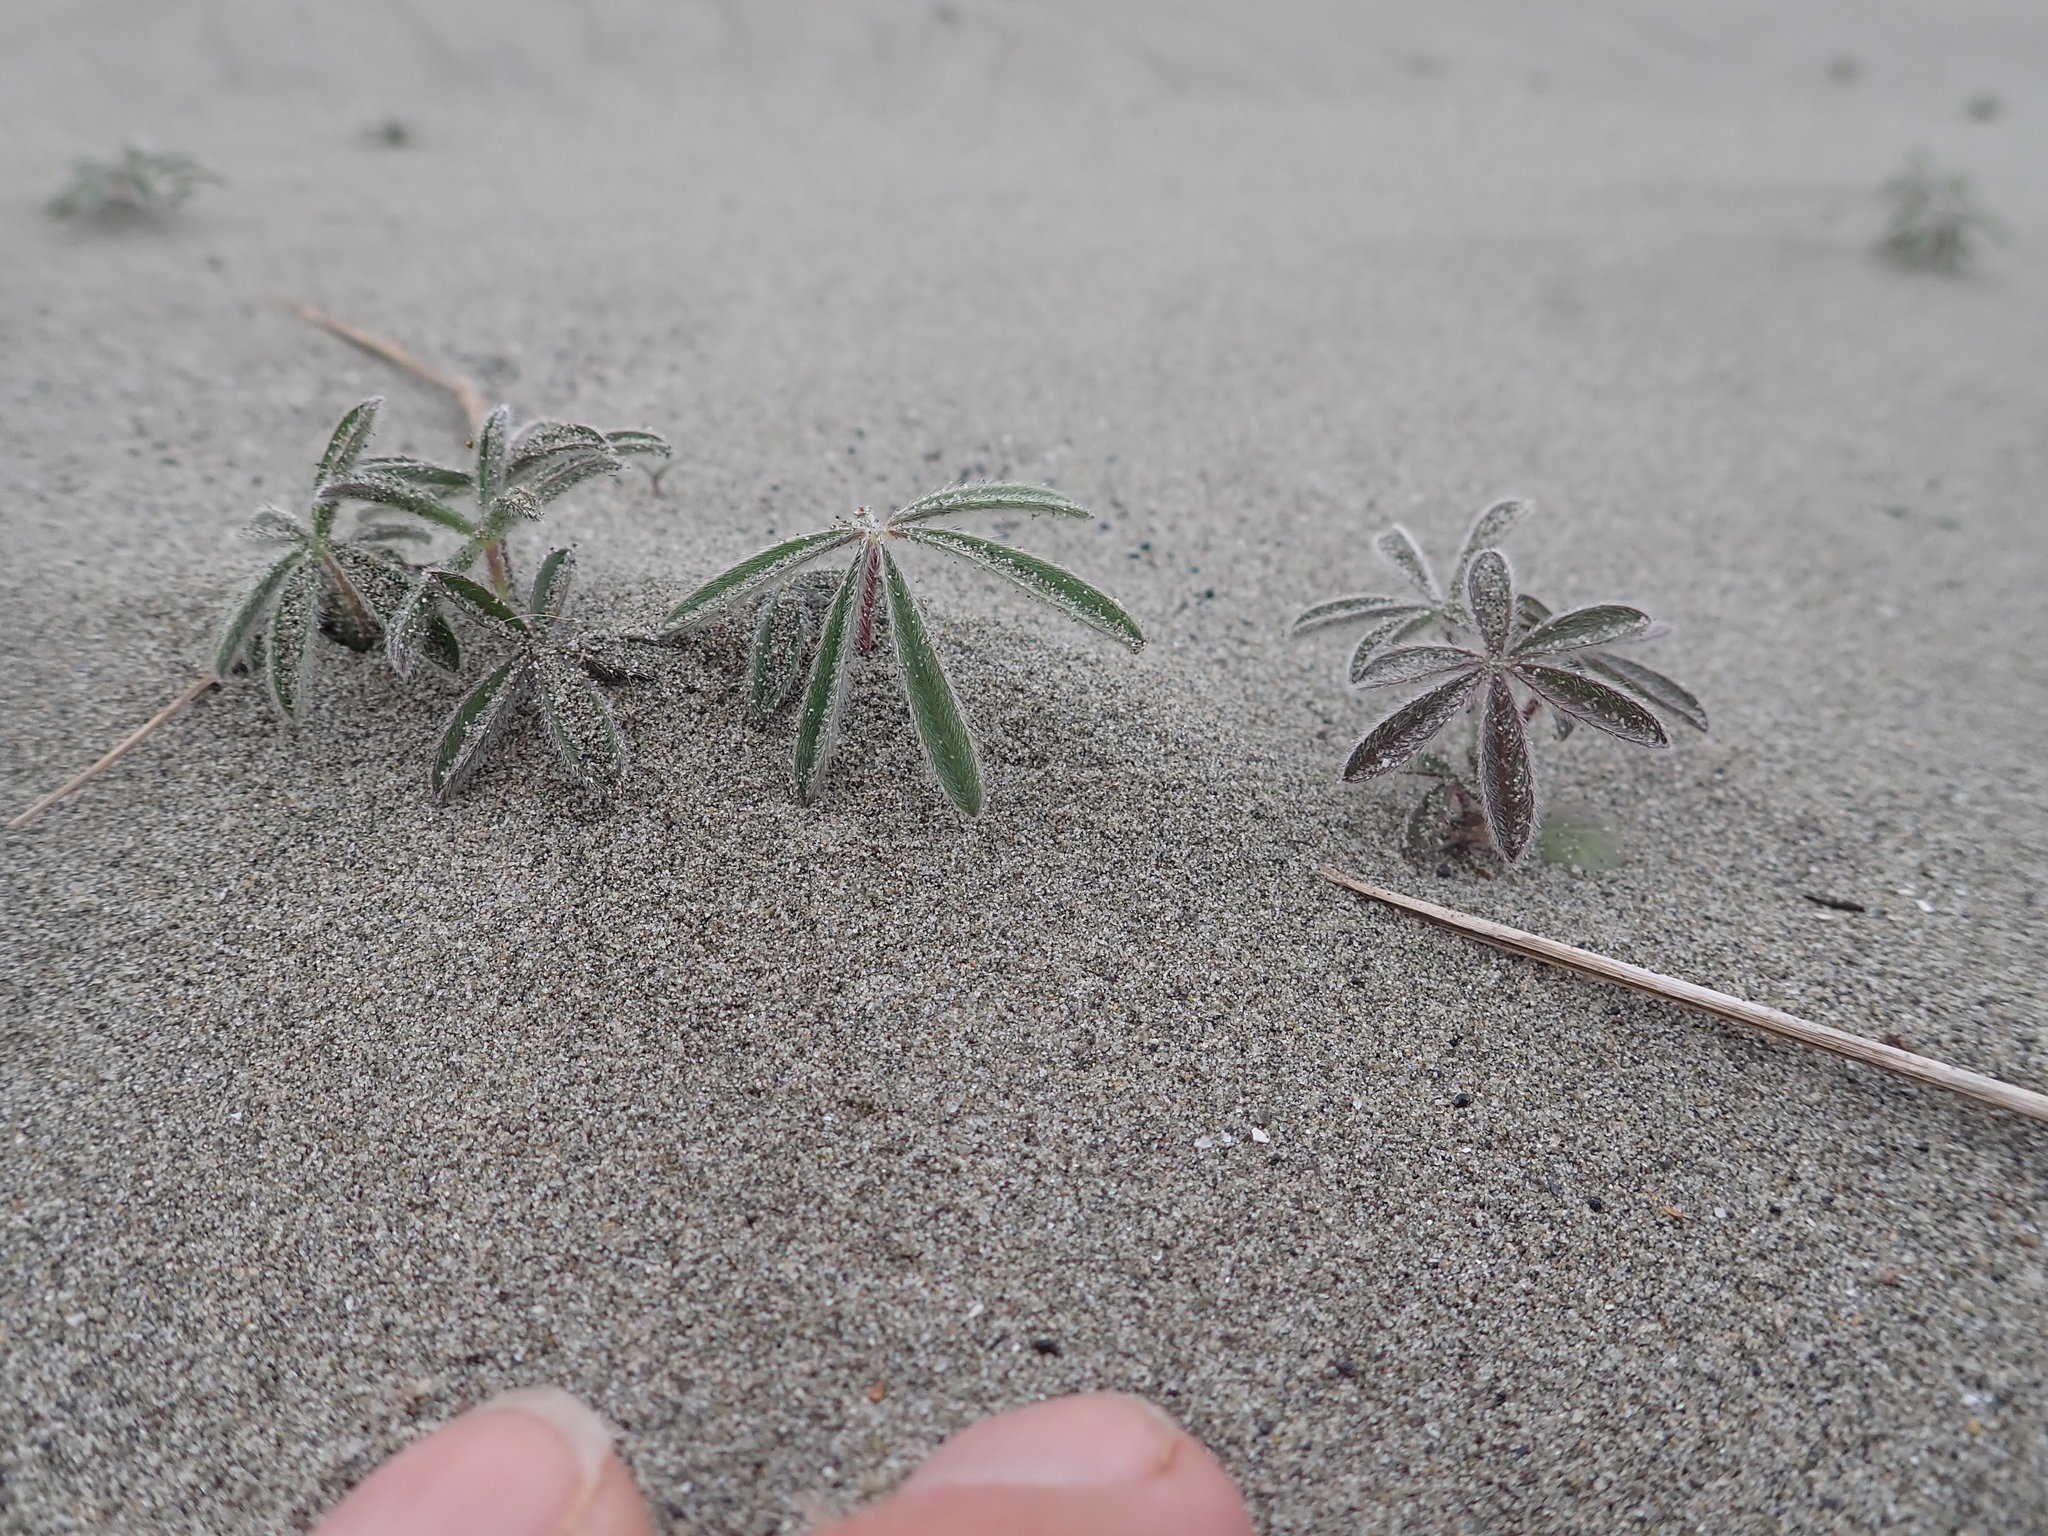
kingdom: Plantae
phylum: Tracheophyta
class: Magnoliopsida
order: Fabales
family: Fabaceae
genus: Lupinus
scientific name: Lupinus arboreus
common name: Yellow bush lupine
